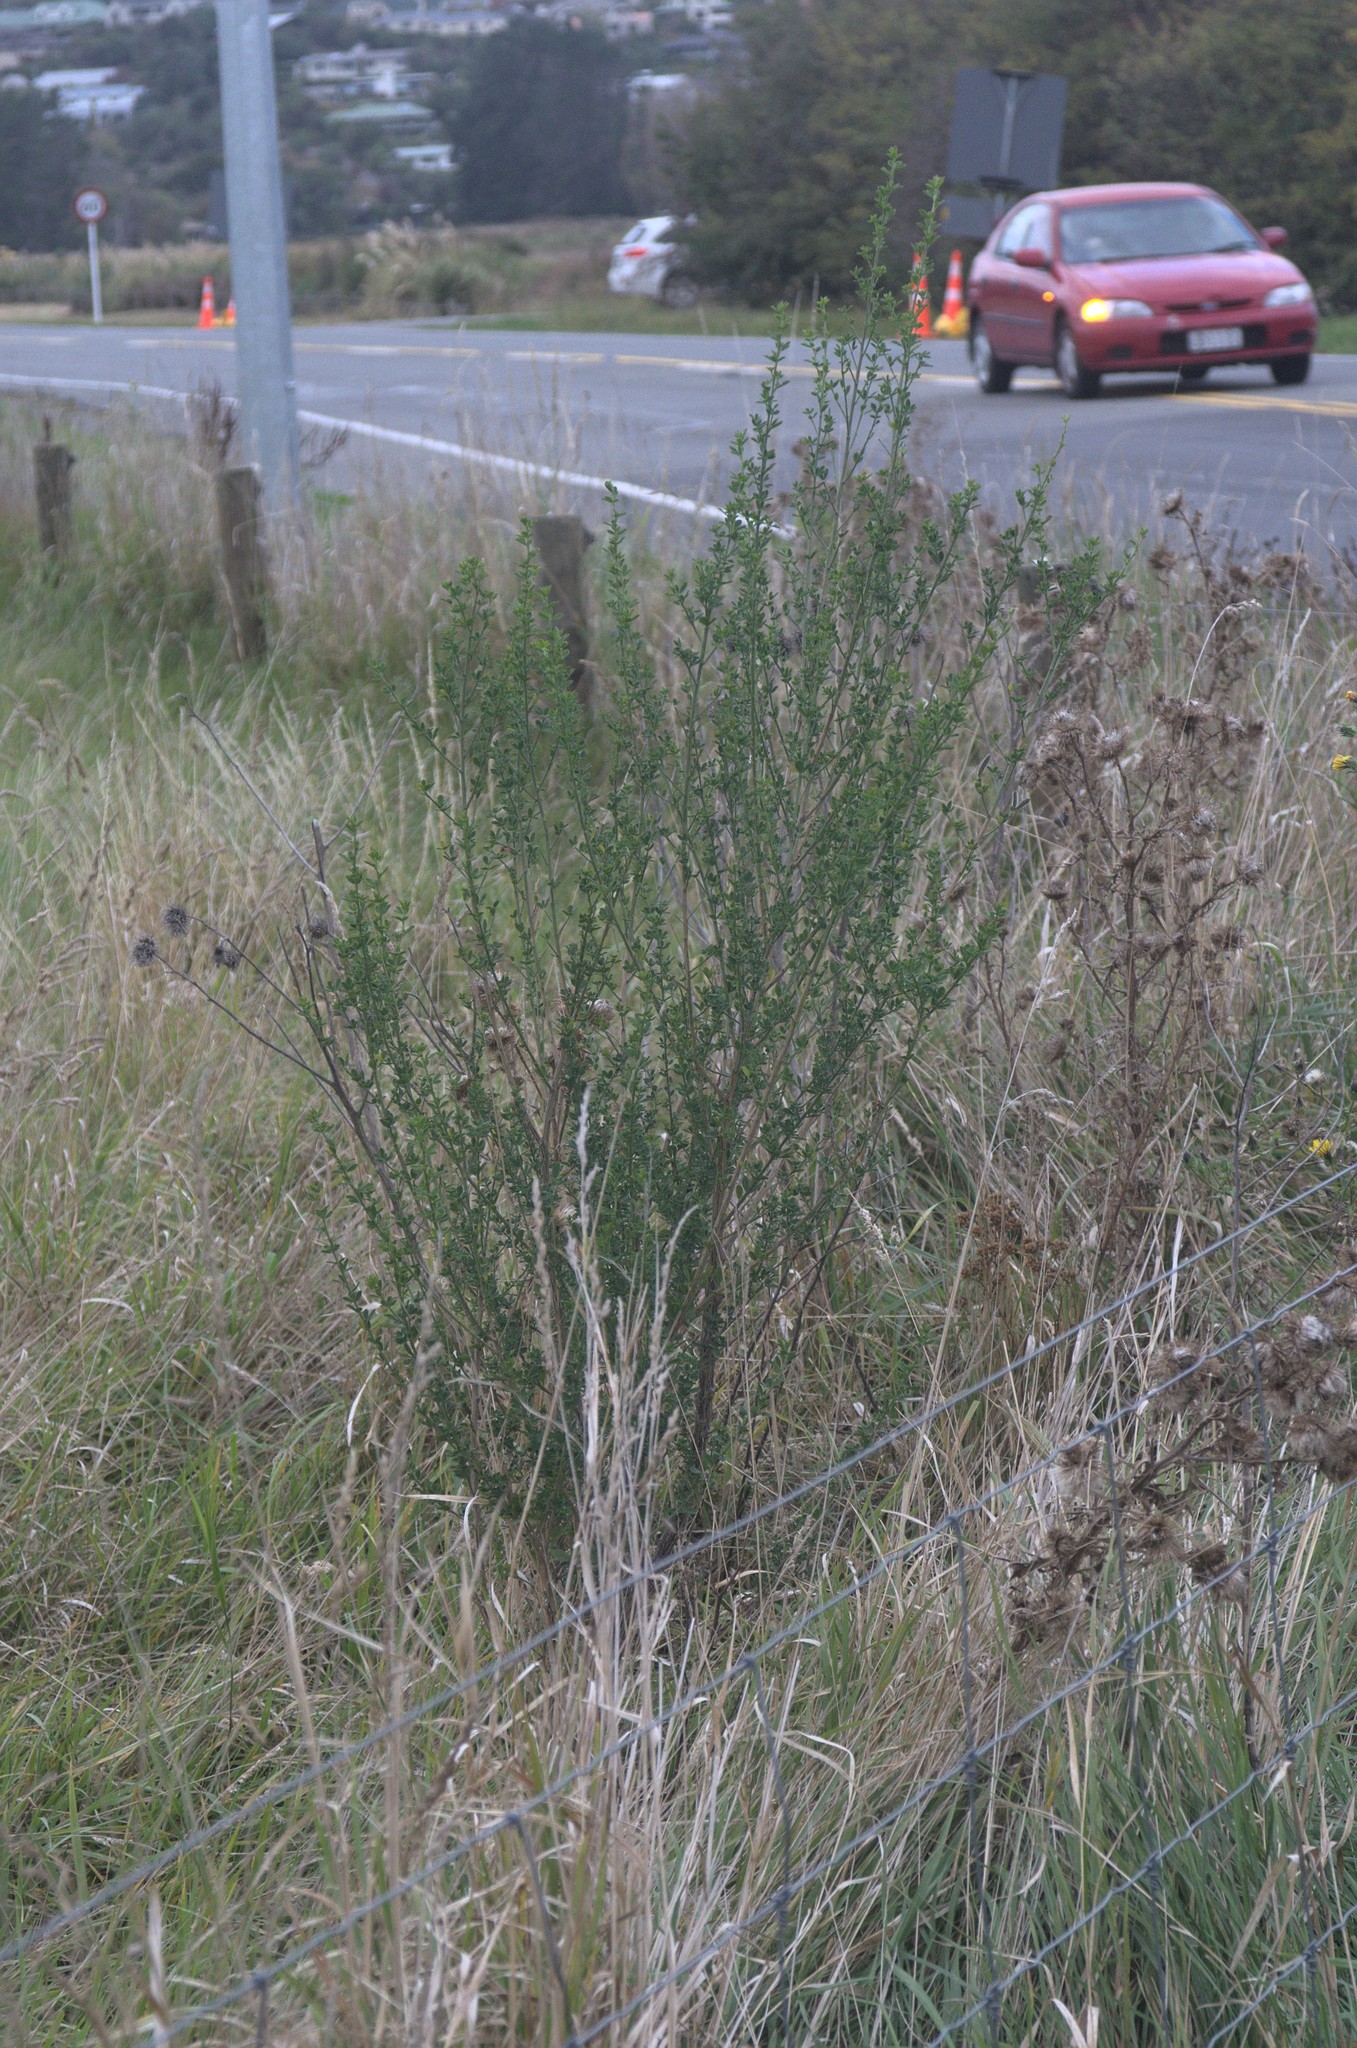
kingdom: Plantae
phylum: Tracheophyta
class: Magnoliopsida
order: Fabales
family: Fabaceae
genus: Cytisus
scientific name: Cytisus scoparius
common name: Scotch broom
